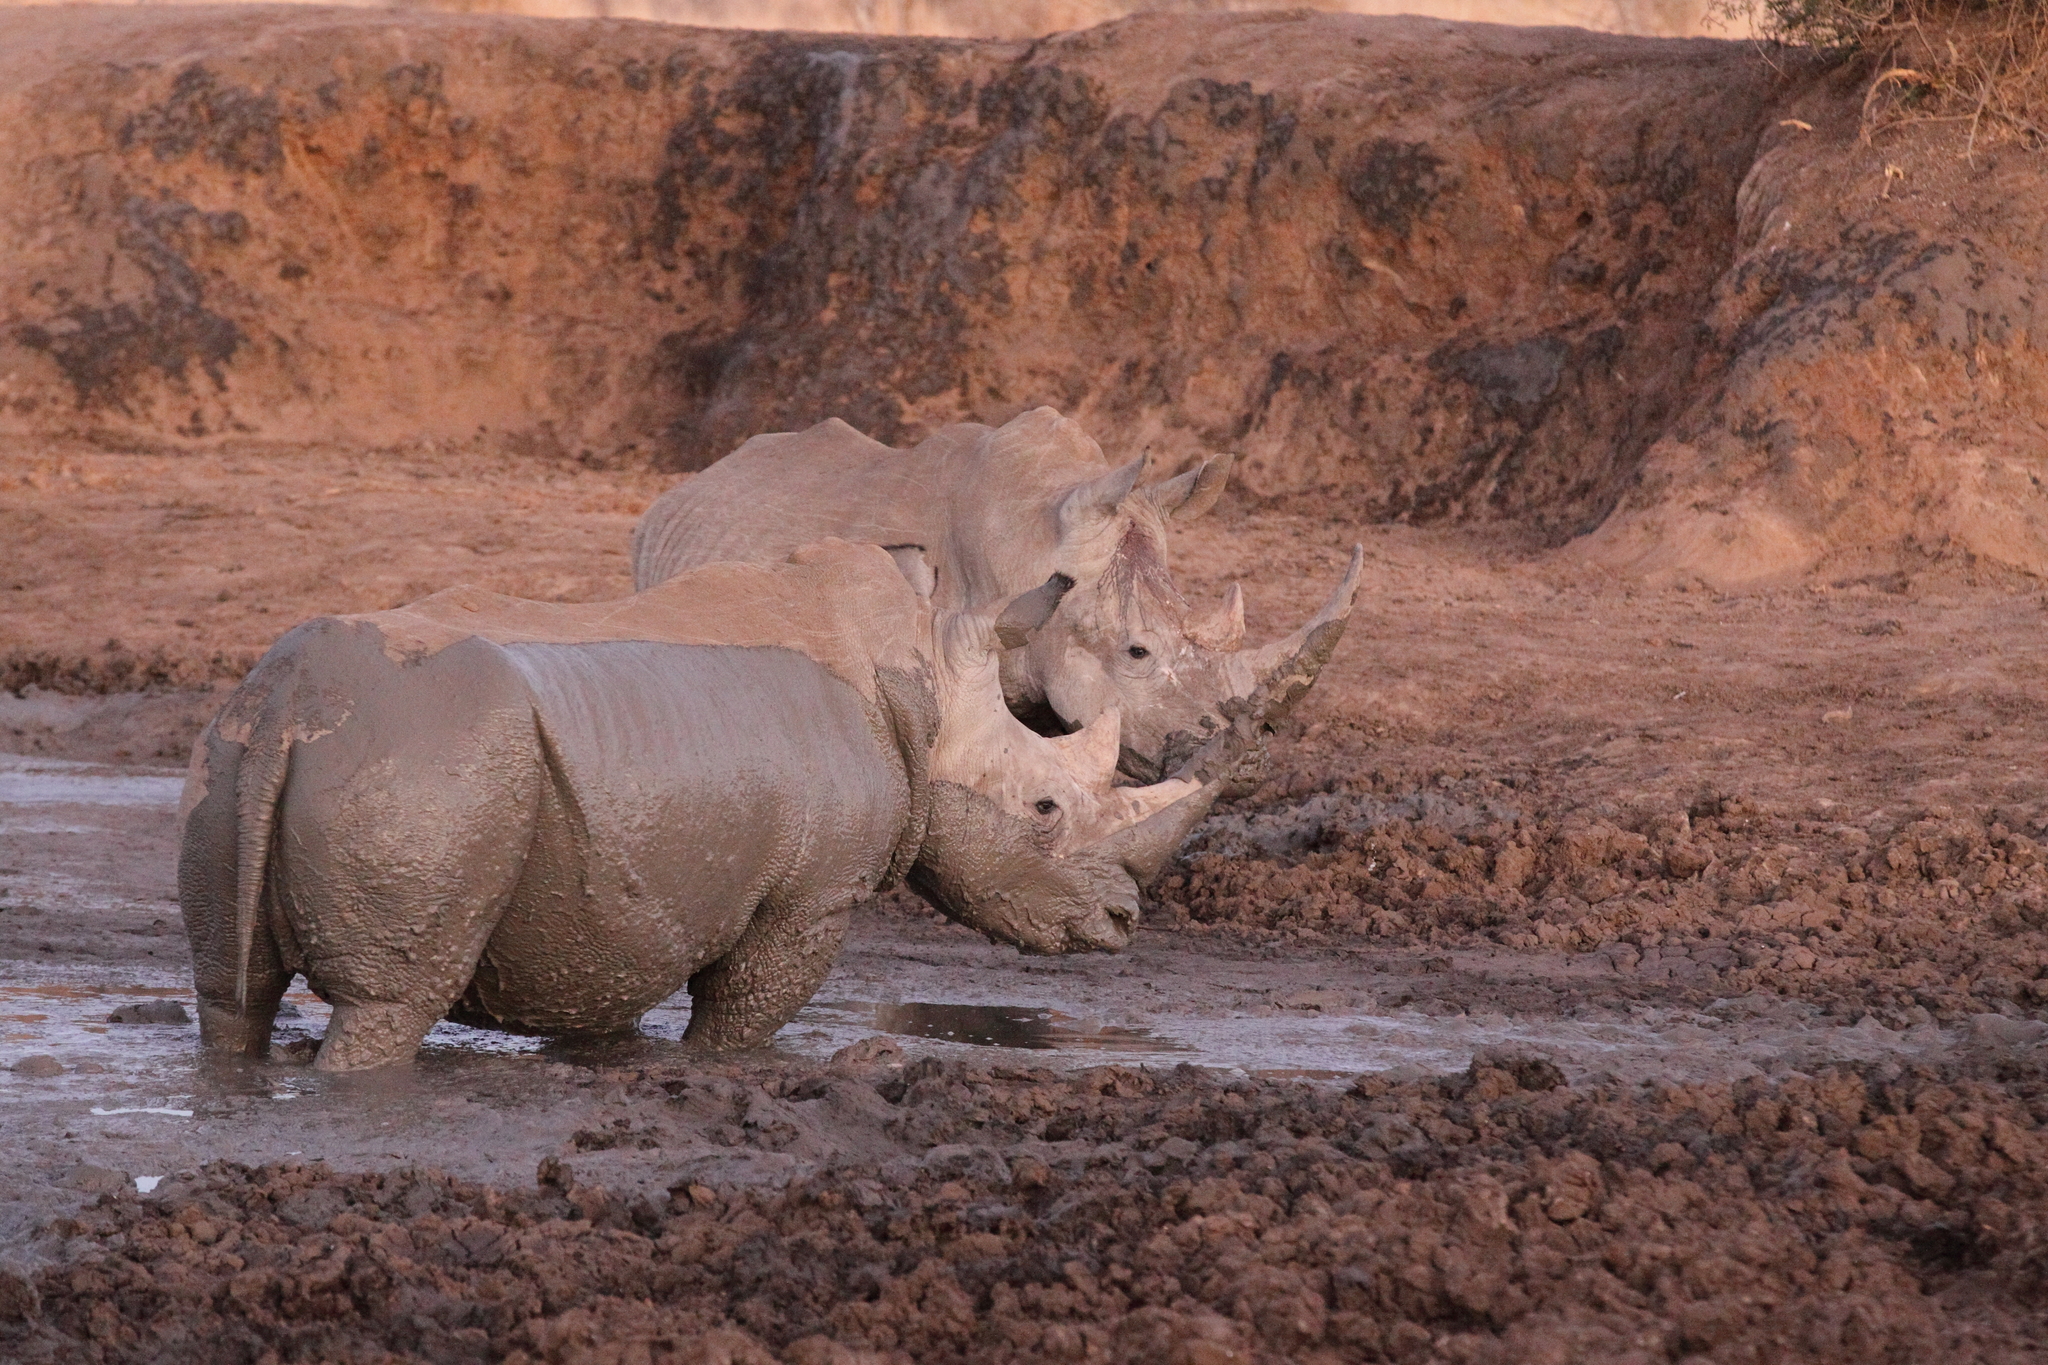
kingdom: Animalia
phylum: Chordata
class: Mammalia
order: Perissodactyla
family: Rhinocerotidae
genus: Ceratotherium
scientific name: Ceratotherium simum
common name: White rhinoceros
